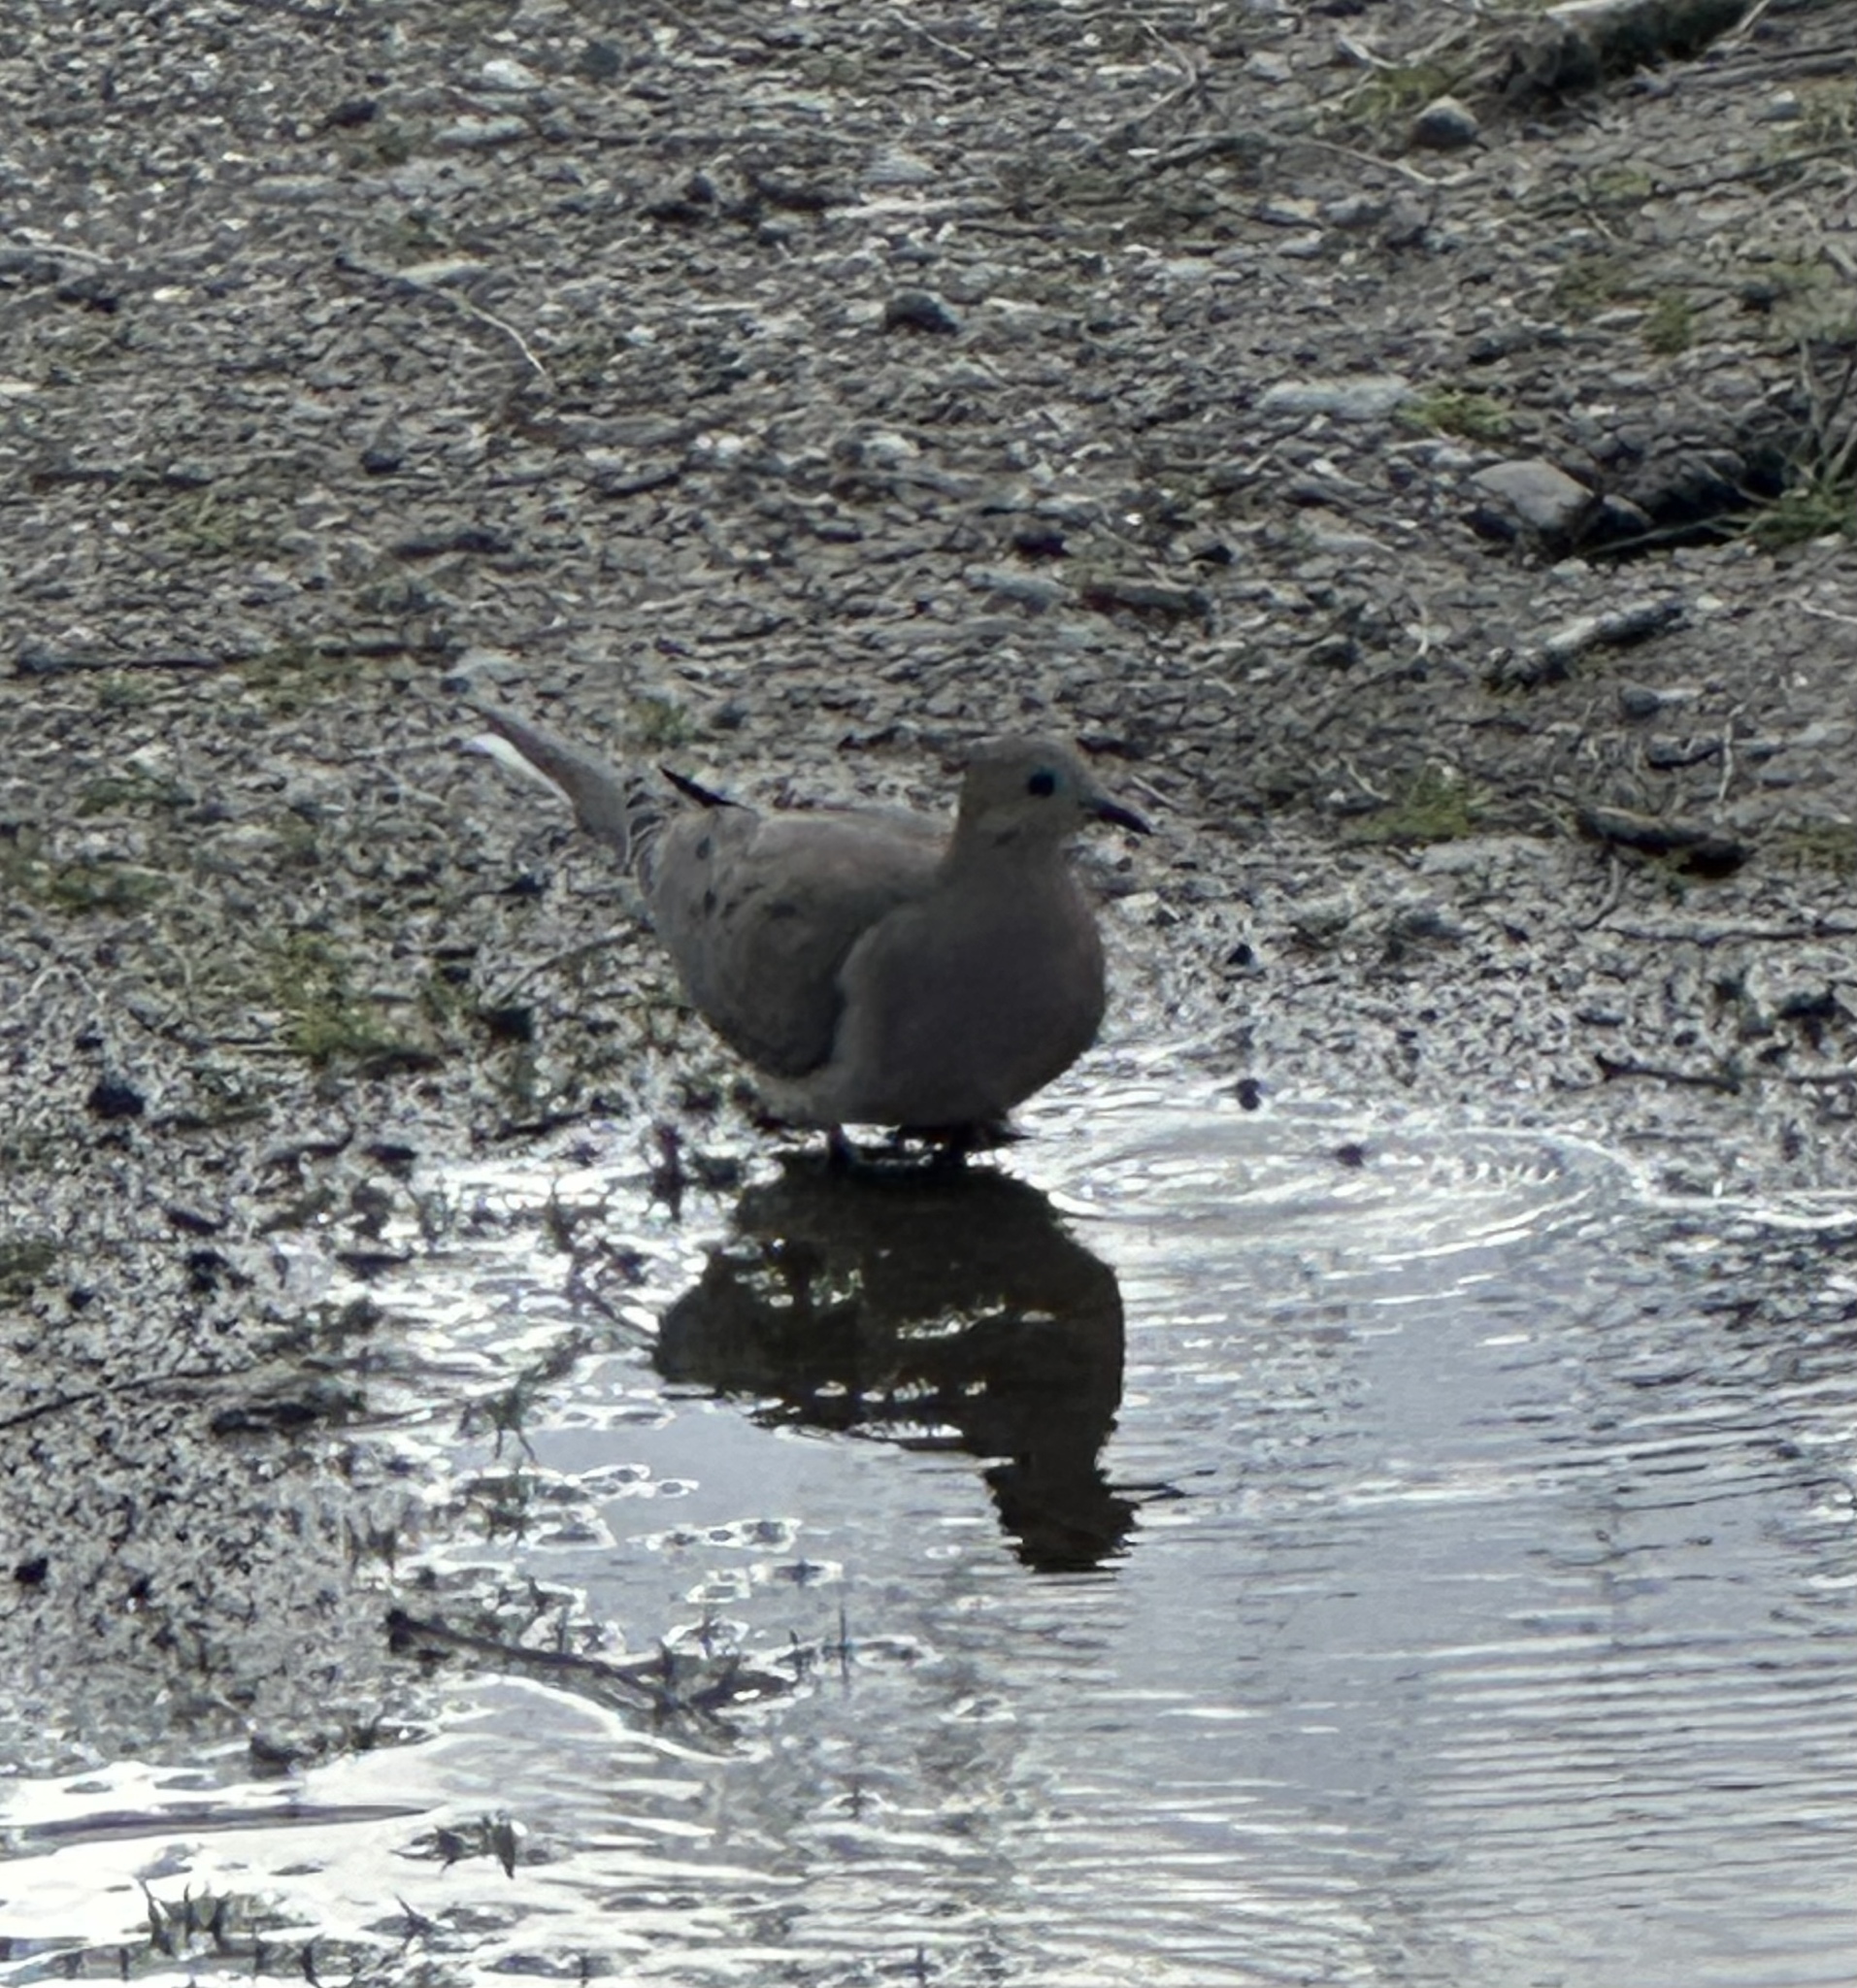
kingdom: Animalia
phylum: Chordata
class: Aves
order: Columbiformes
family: Columbidae
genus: Zenaida
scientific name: Zenaida macroura
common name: Mourning dove
